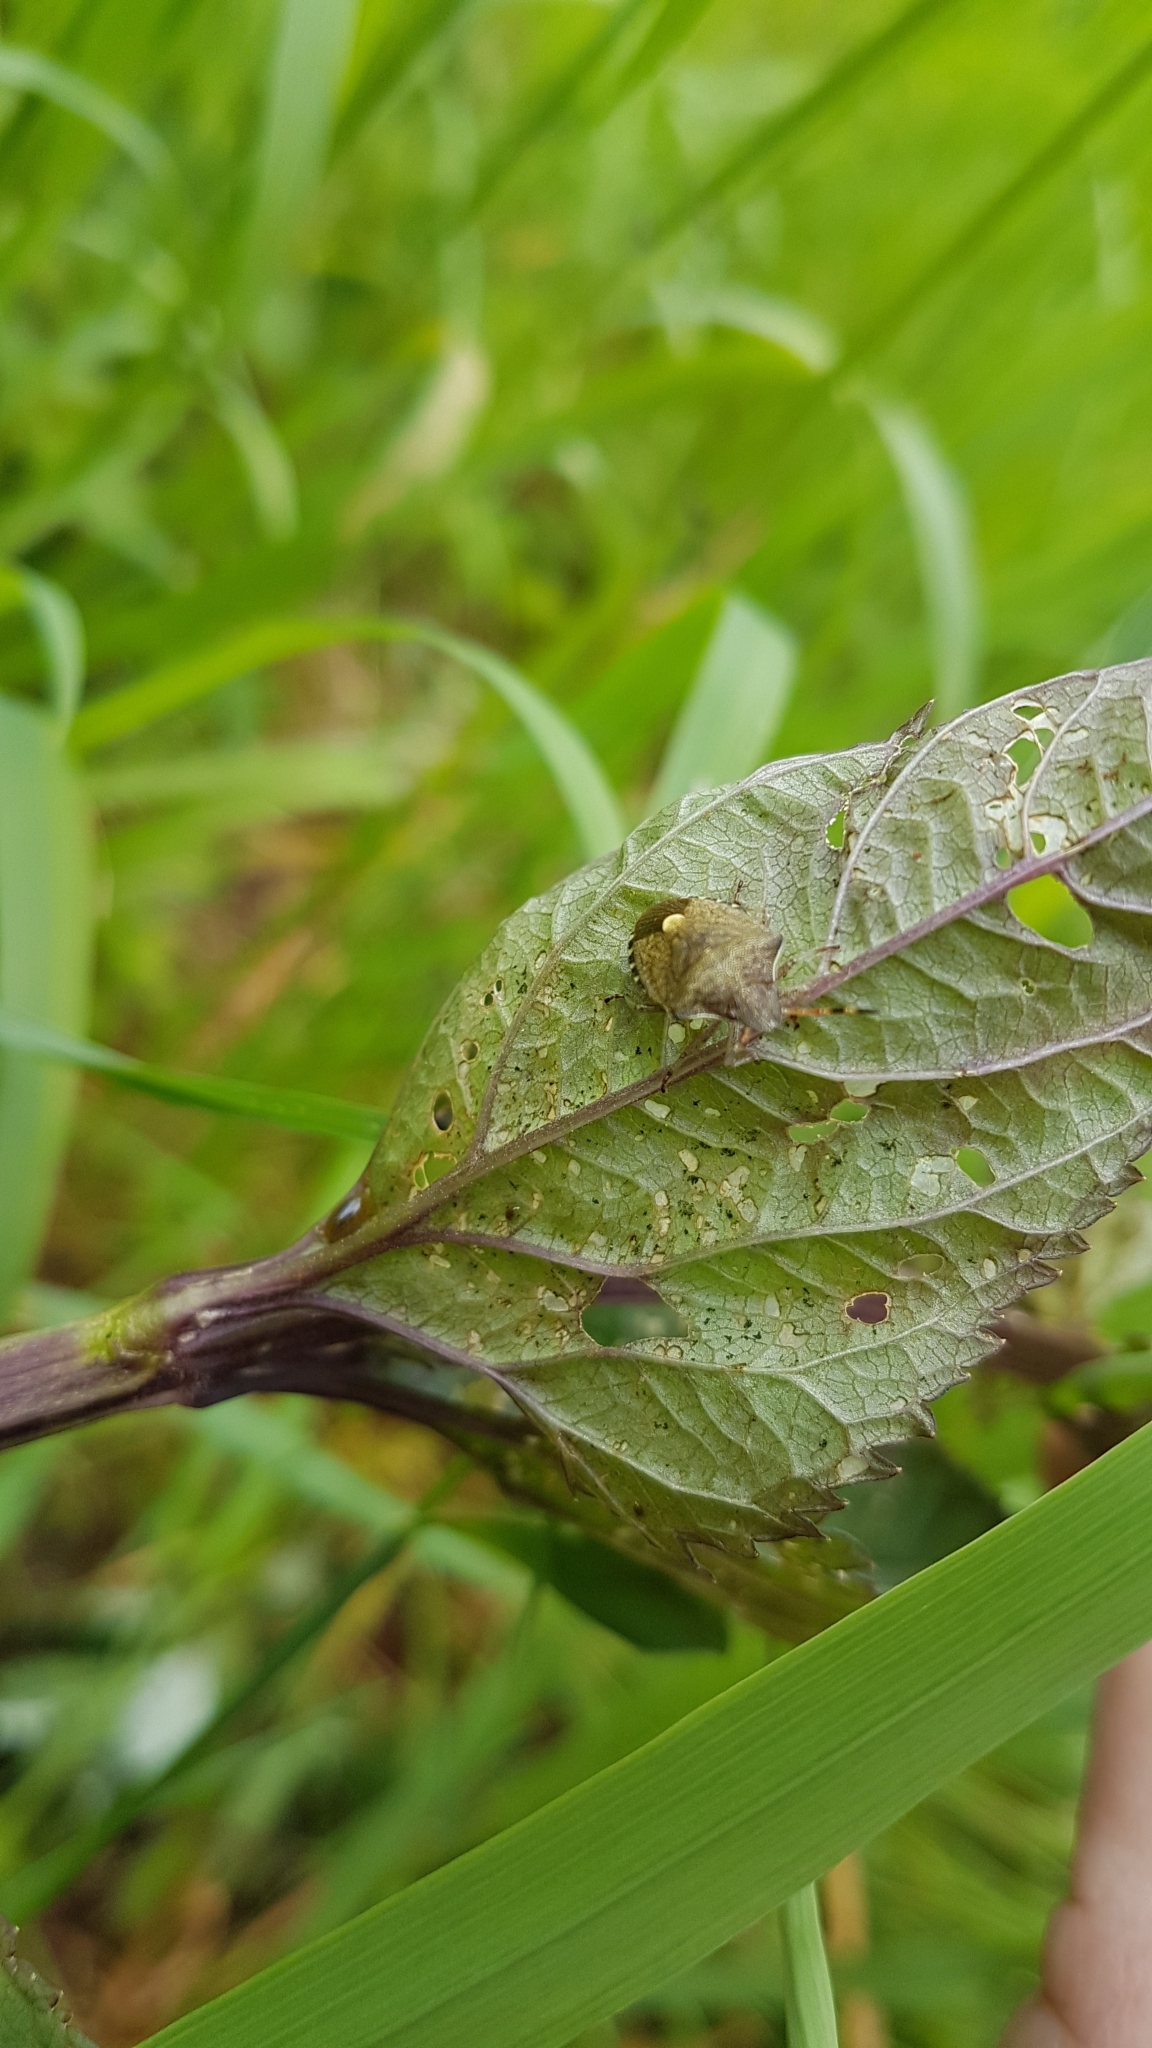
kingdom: Animalia
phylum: Arthropoda
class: Insecta
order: Hemiptera
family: Pentatomidae
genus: Holcostethus
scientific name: Holcostethus strictus
